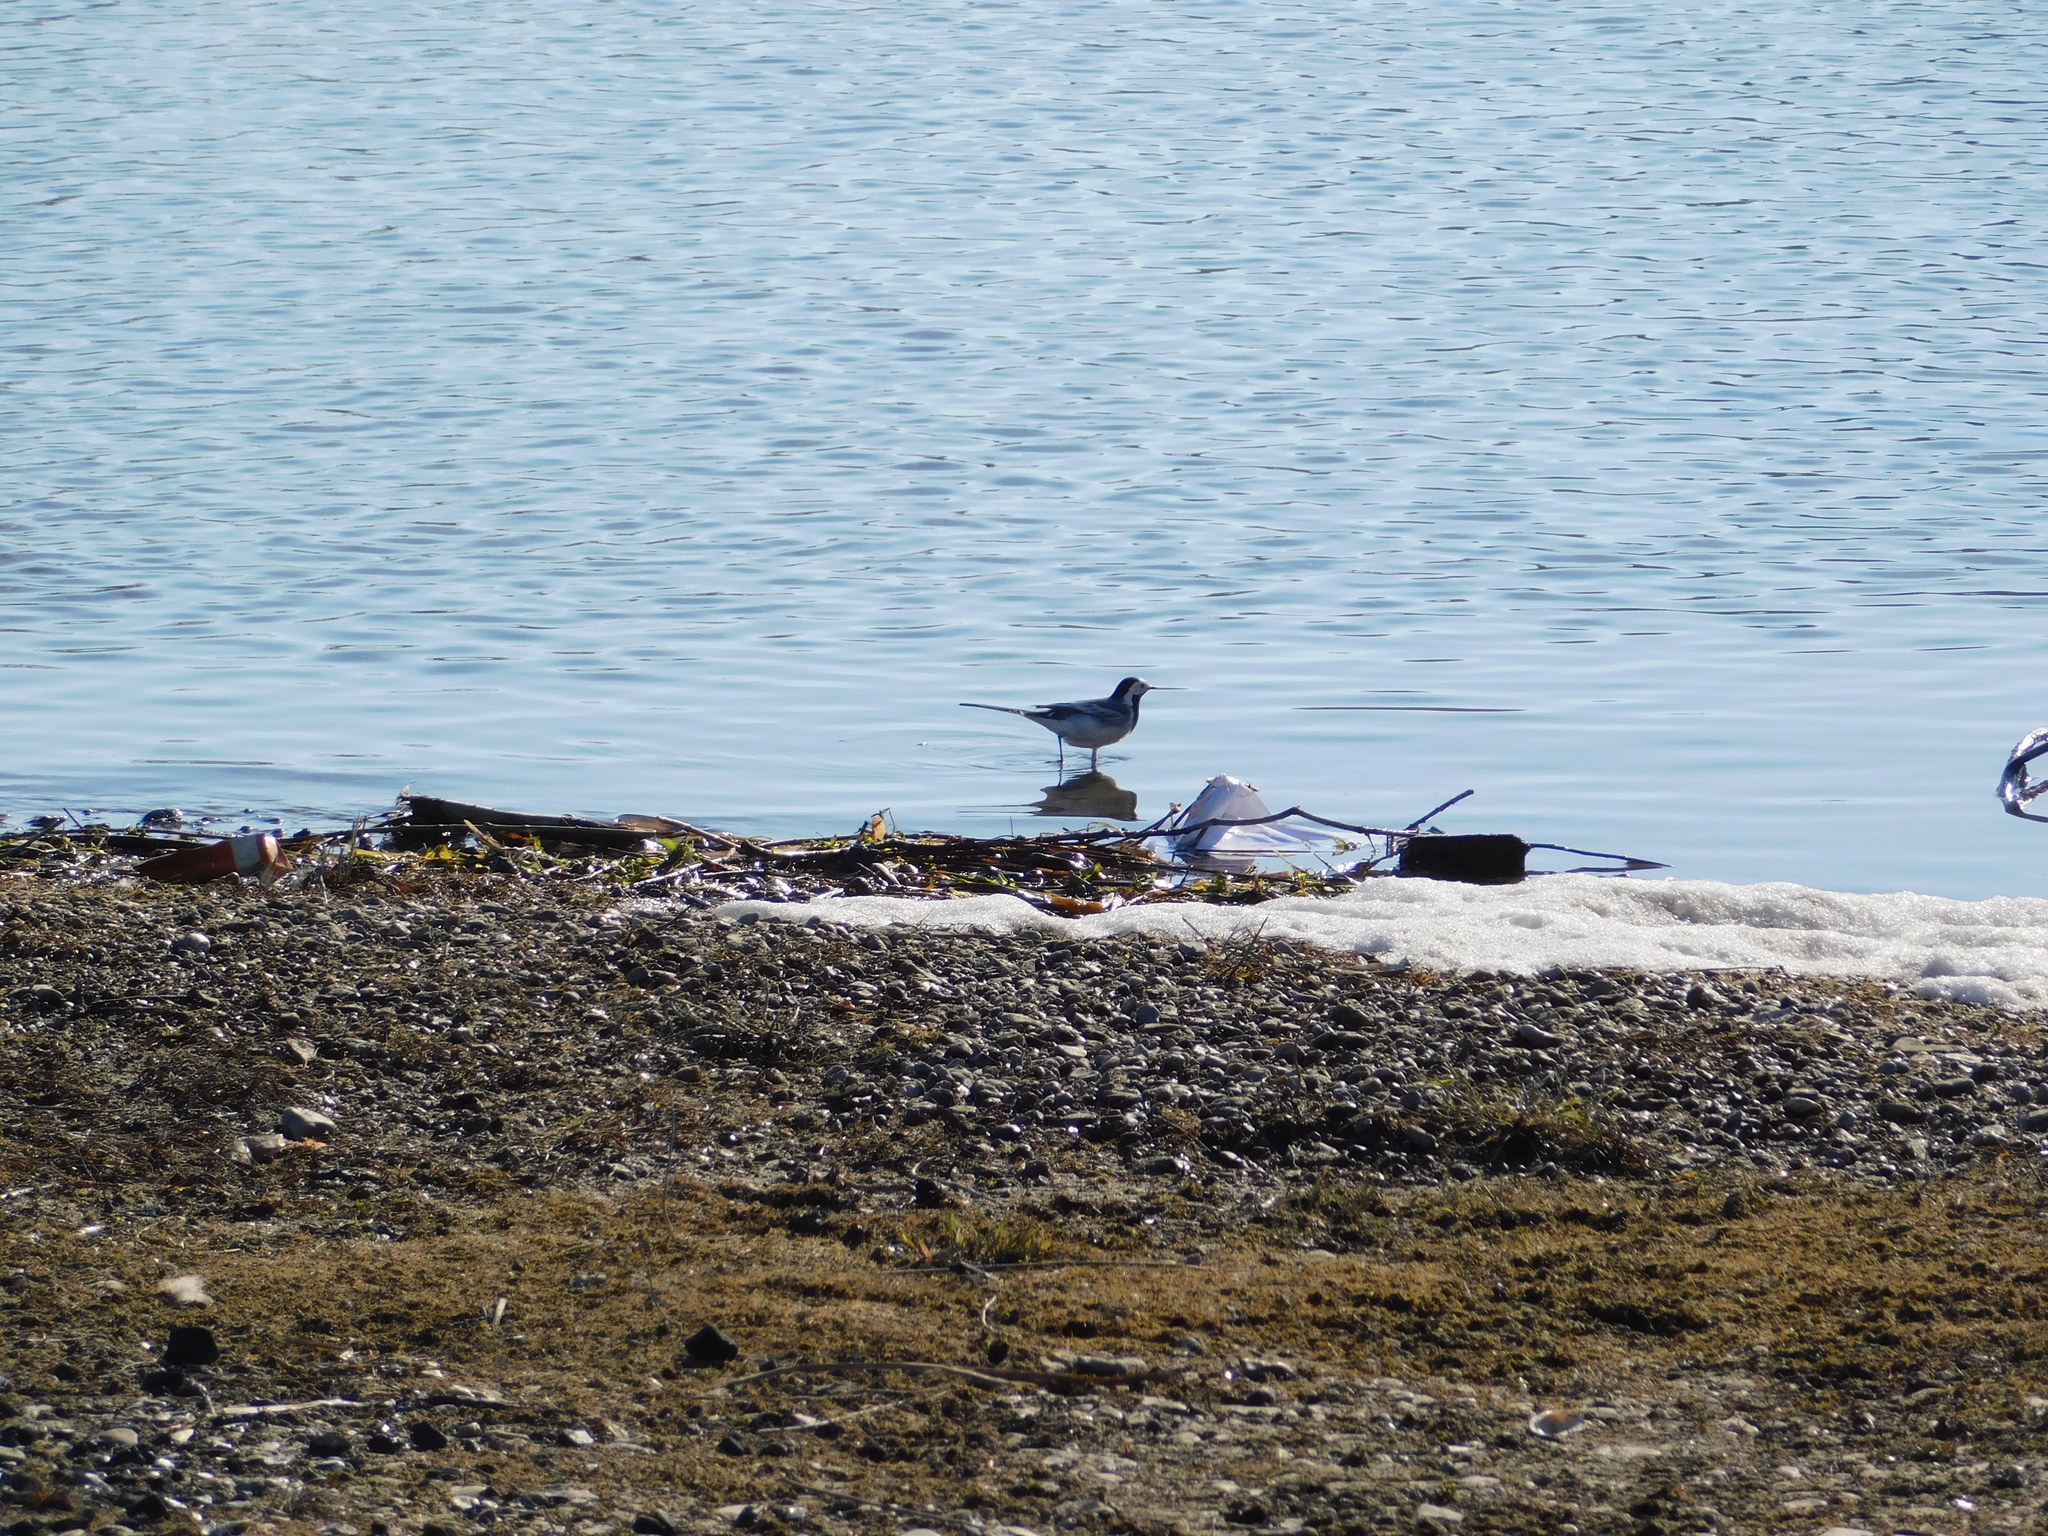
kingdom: Animalia
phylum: Chordata
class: Aves
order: Passeriformes
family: Motacillidae
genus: Motacilla
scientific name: Motacilla alba
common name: White wagtail
